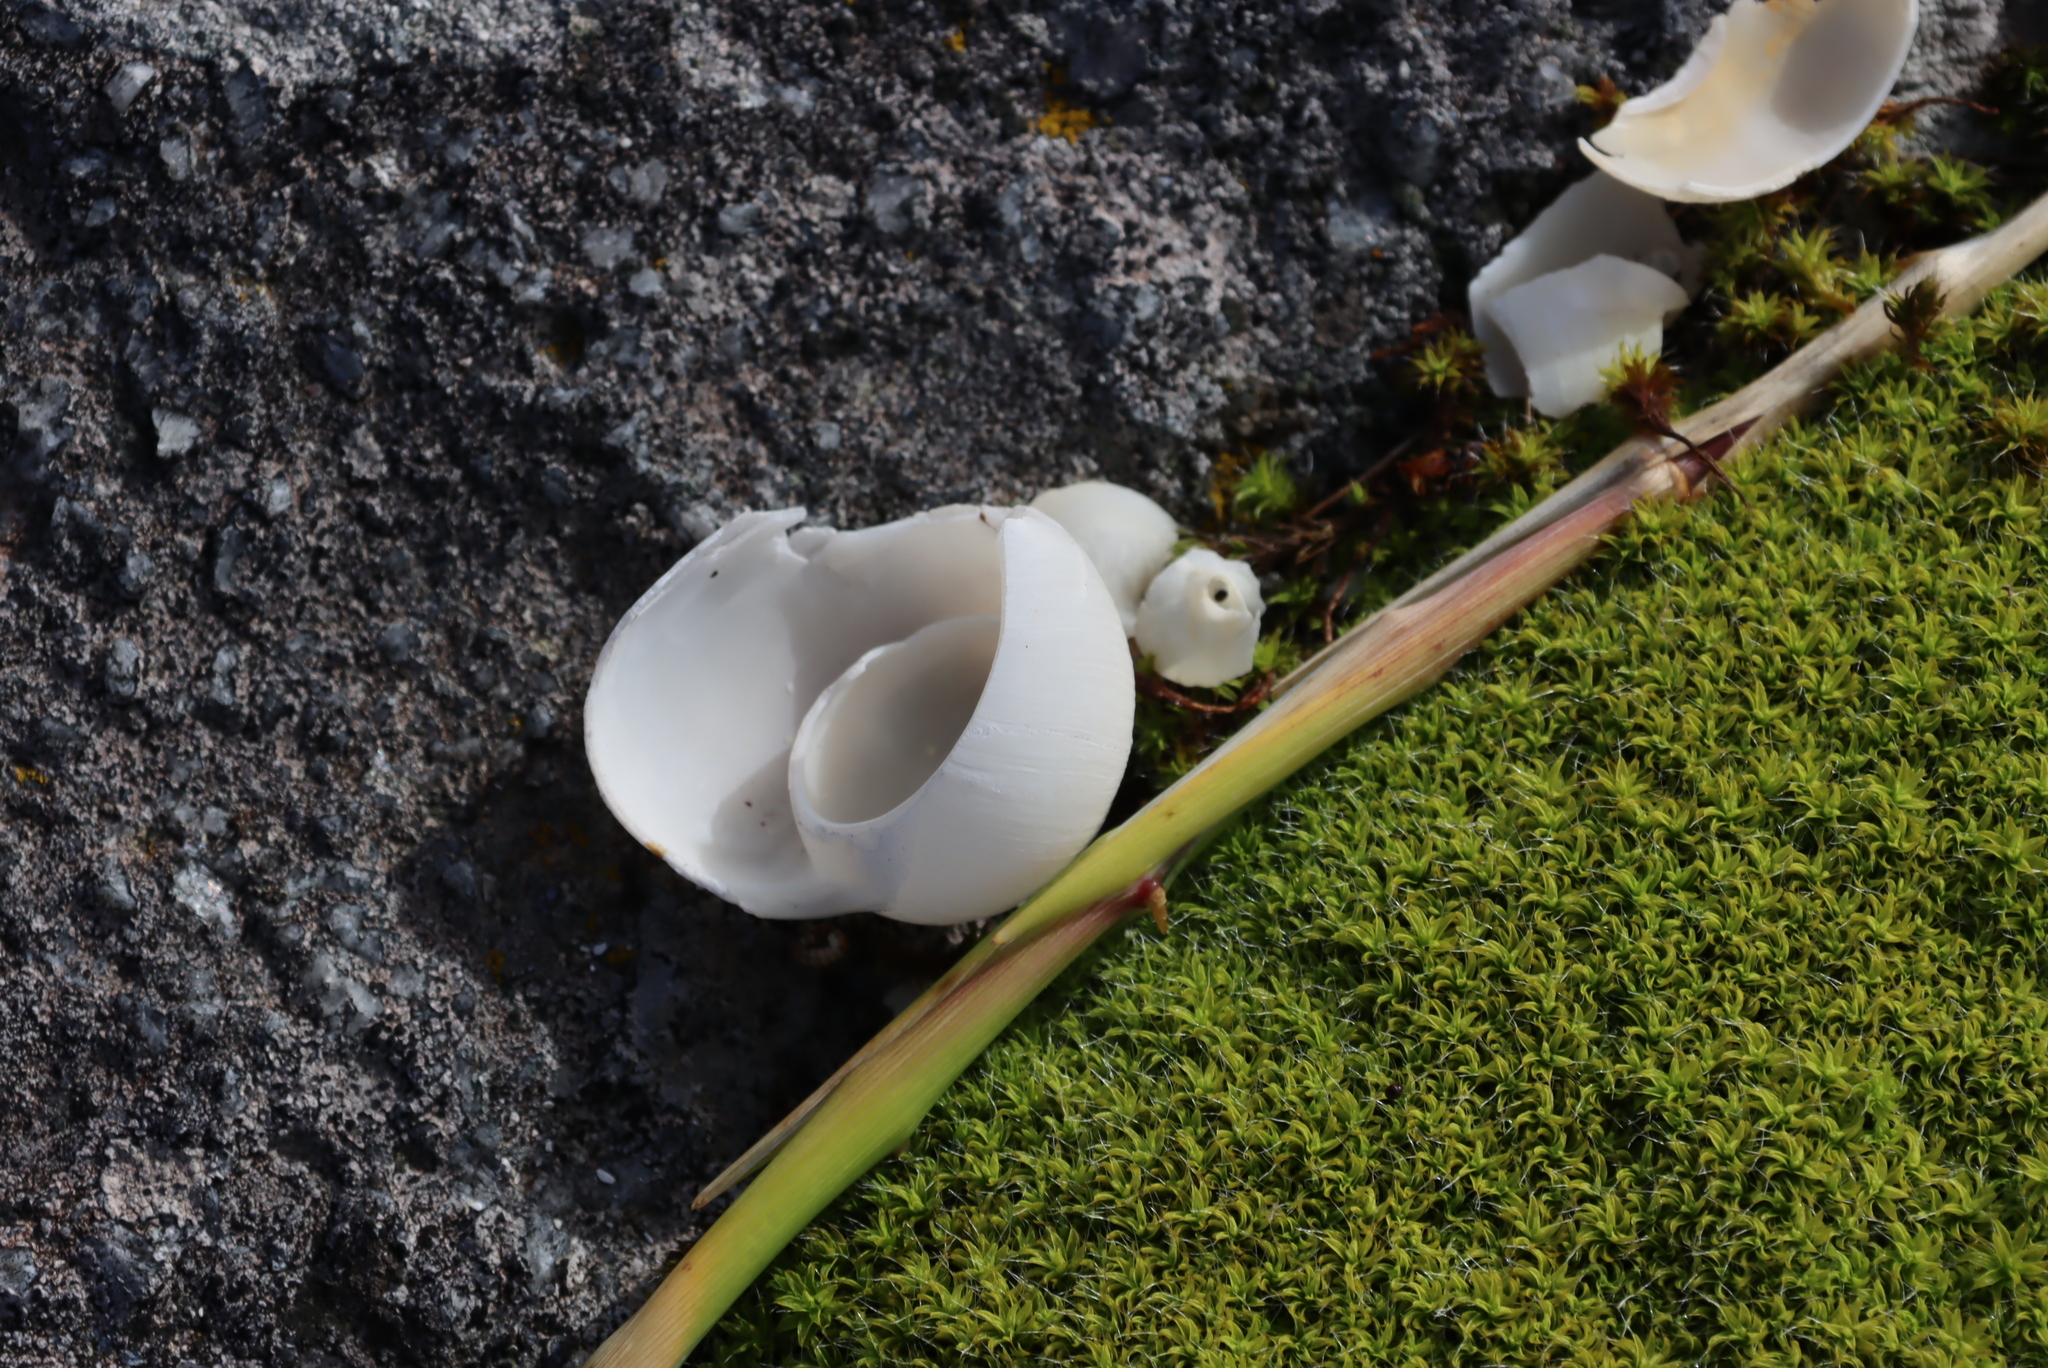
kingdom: Plantae
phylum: Bryophyta
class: Bryopsida
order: Pottiales
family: Pottiaceae
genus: Pseudocrossidium
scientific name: Pseudocrossidium crinitum
